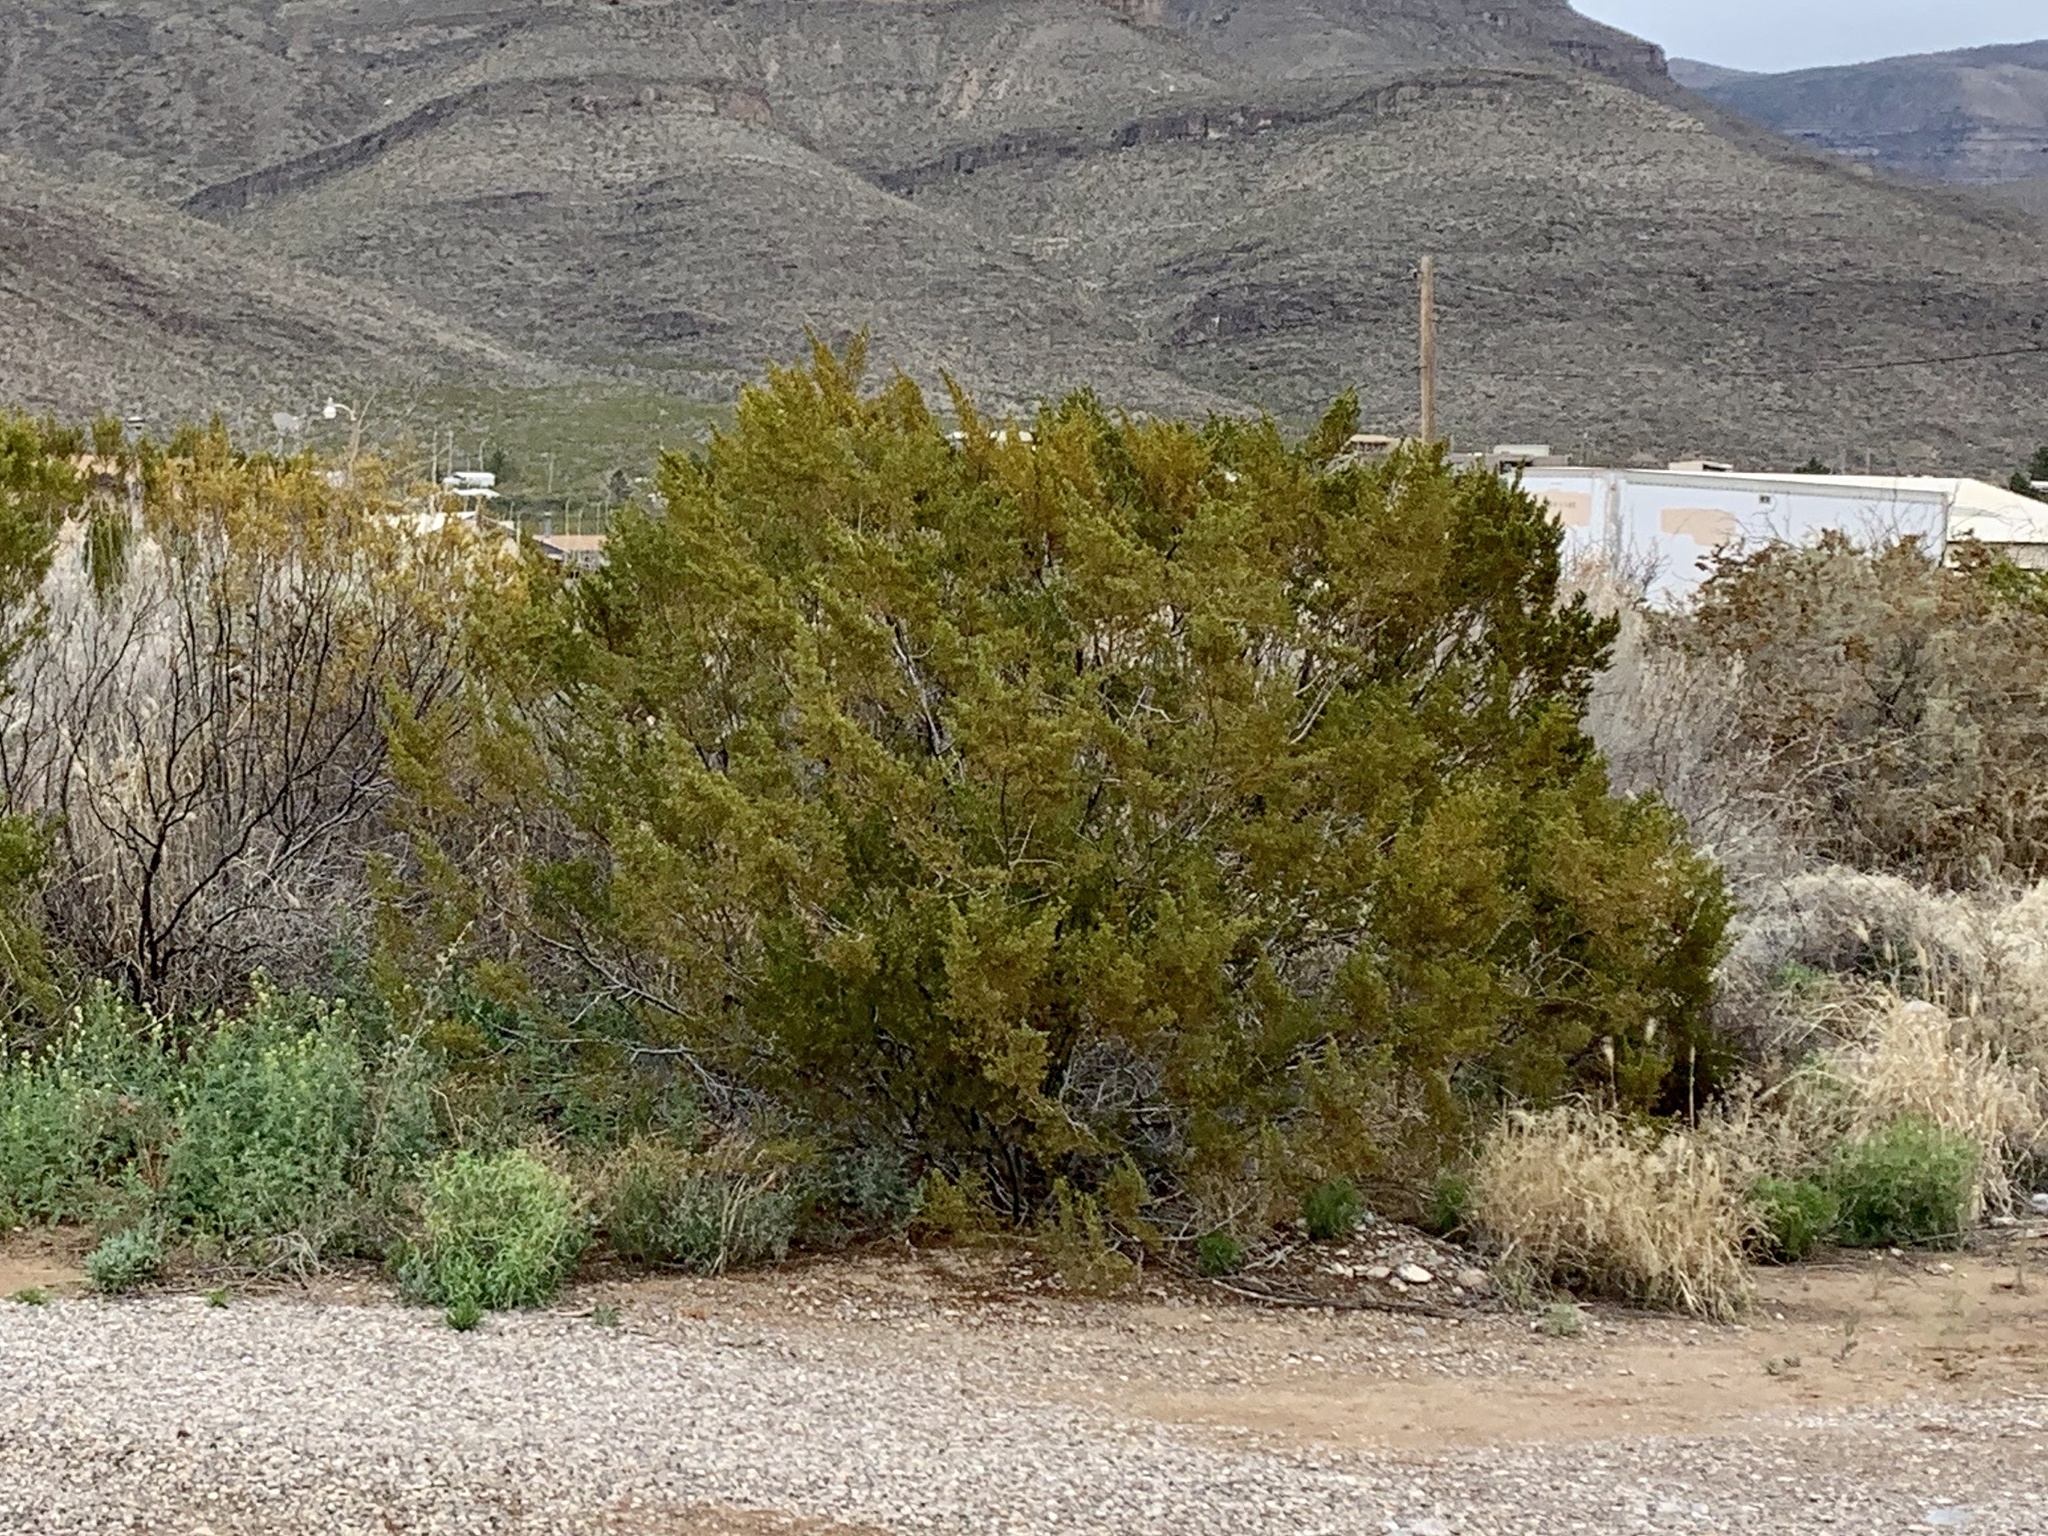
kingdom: Plantae
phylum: Tracheophyta
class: Magnoliopsida
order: Zygophyllales
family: Zygophyllaceae
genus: Larrea
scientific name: Larrea tridentata
